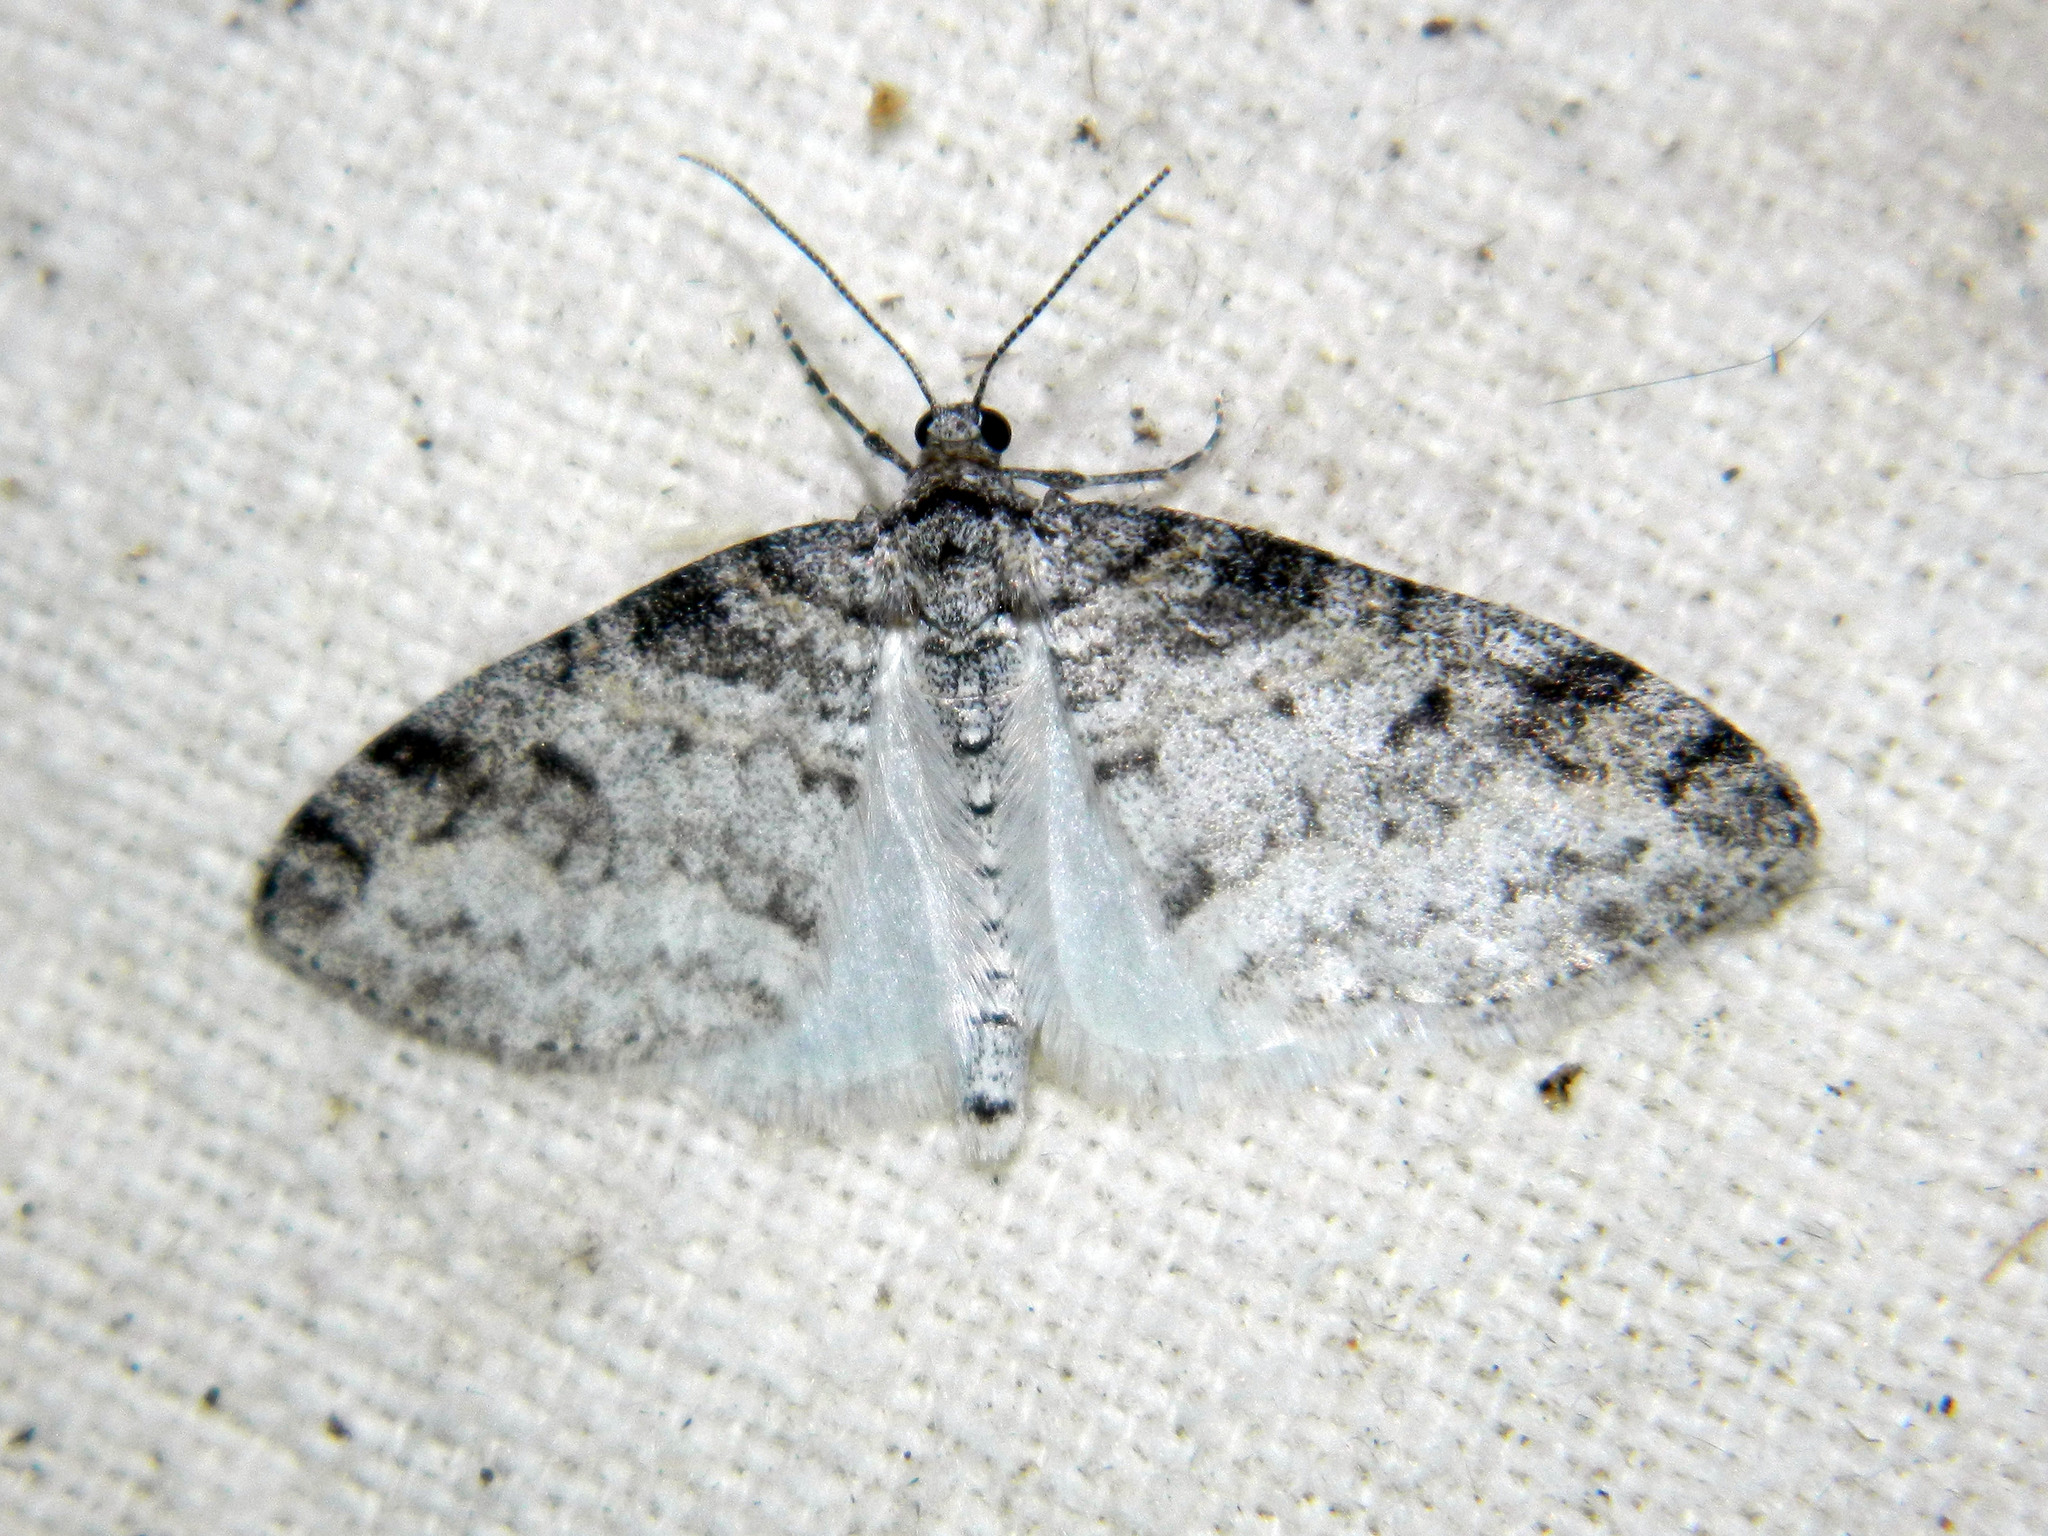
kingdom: Animalia
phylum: Arthropoda
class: Insecta
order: Lepidoptera
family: Geometridae
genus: Lobophora
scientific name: Lobophora nivigerata
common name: Powdered bigwing
